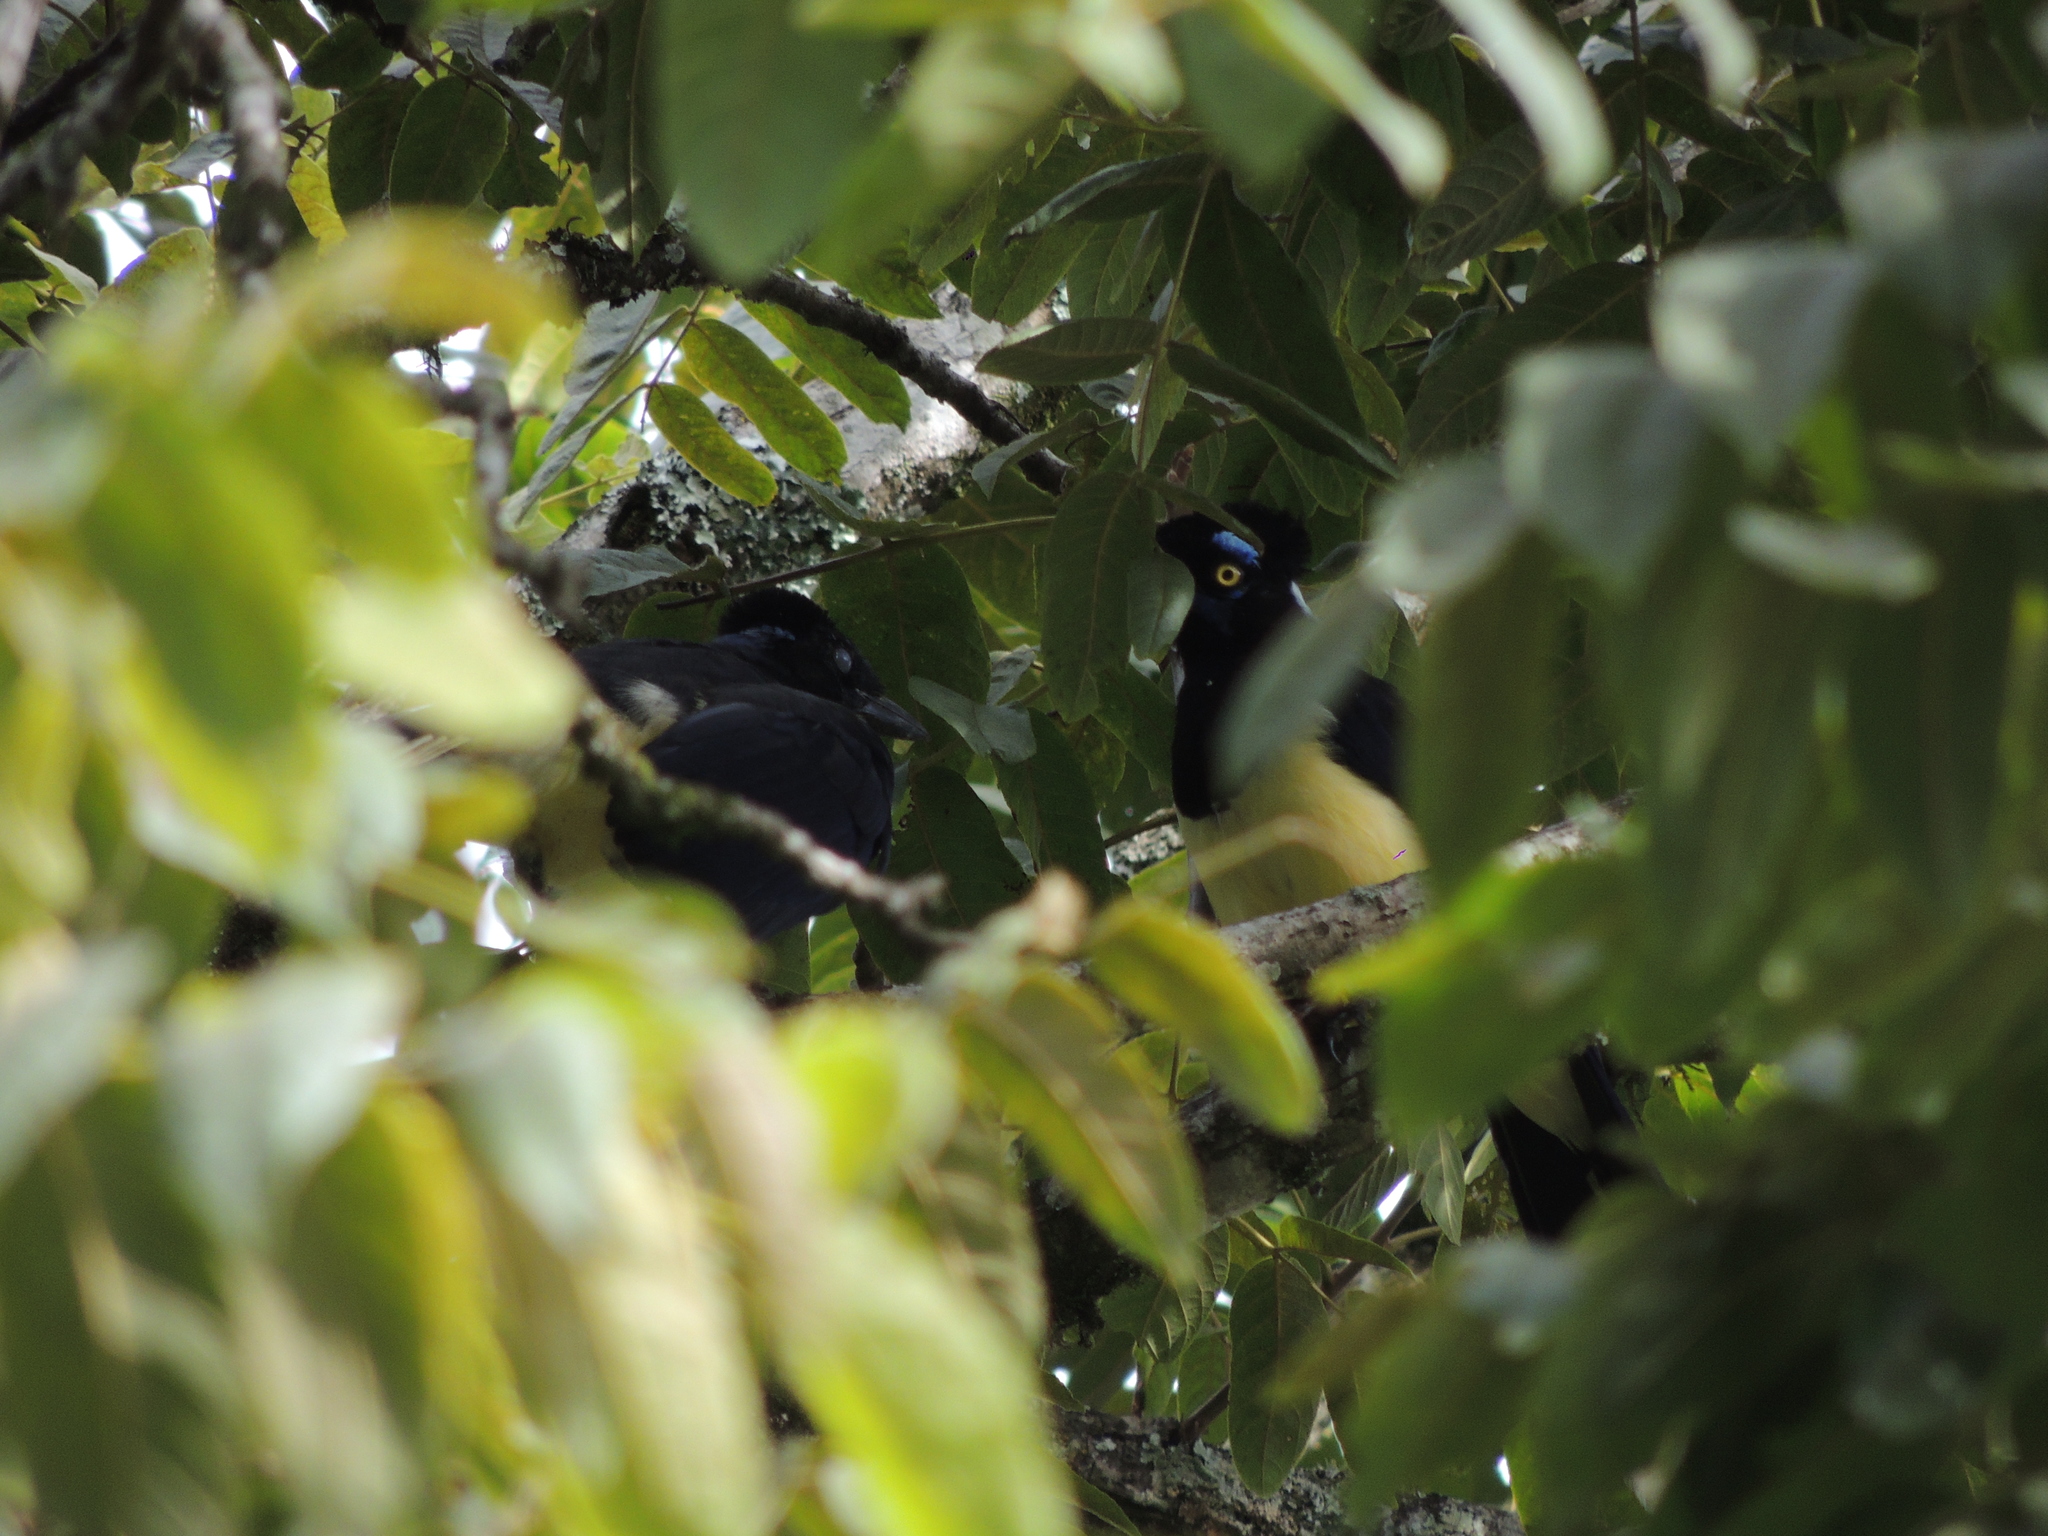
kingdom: Animalia
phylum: Chordata
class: Aves
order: Passeriformes
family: Corvidae
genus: Cyanocorax
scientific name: Cyanocorax chrysops
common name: Plush-crested jay
